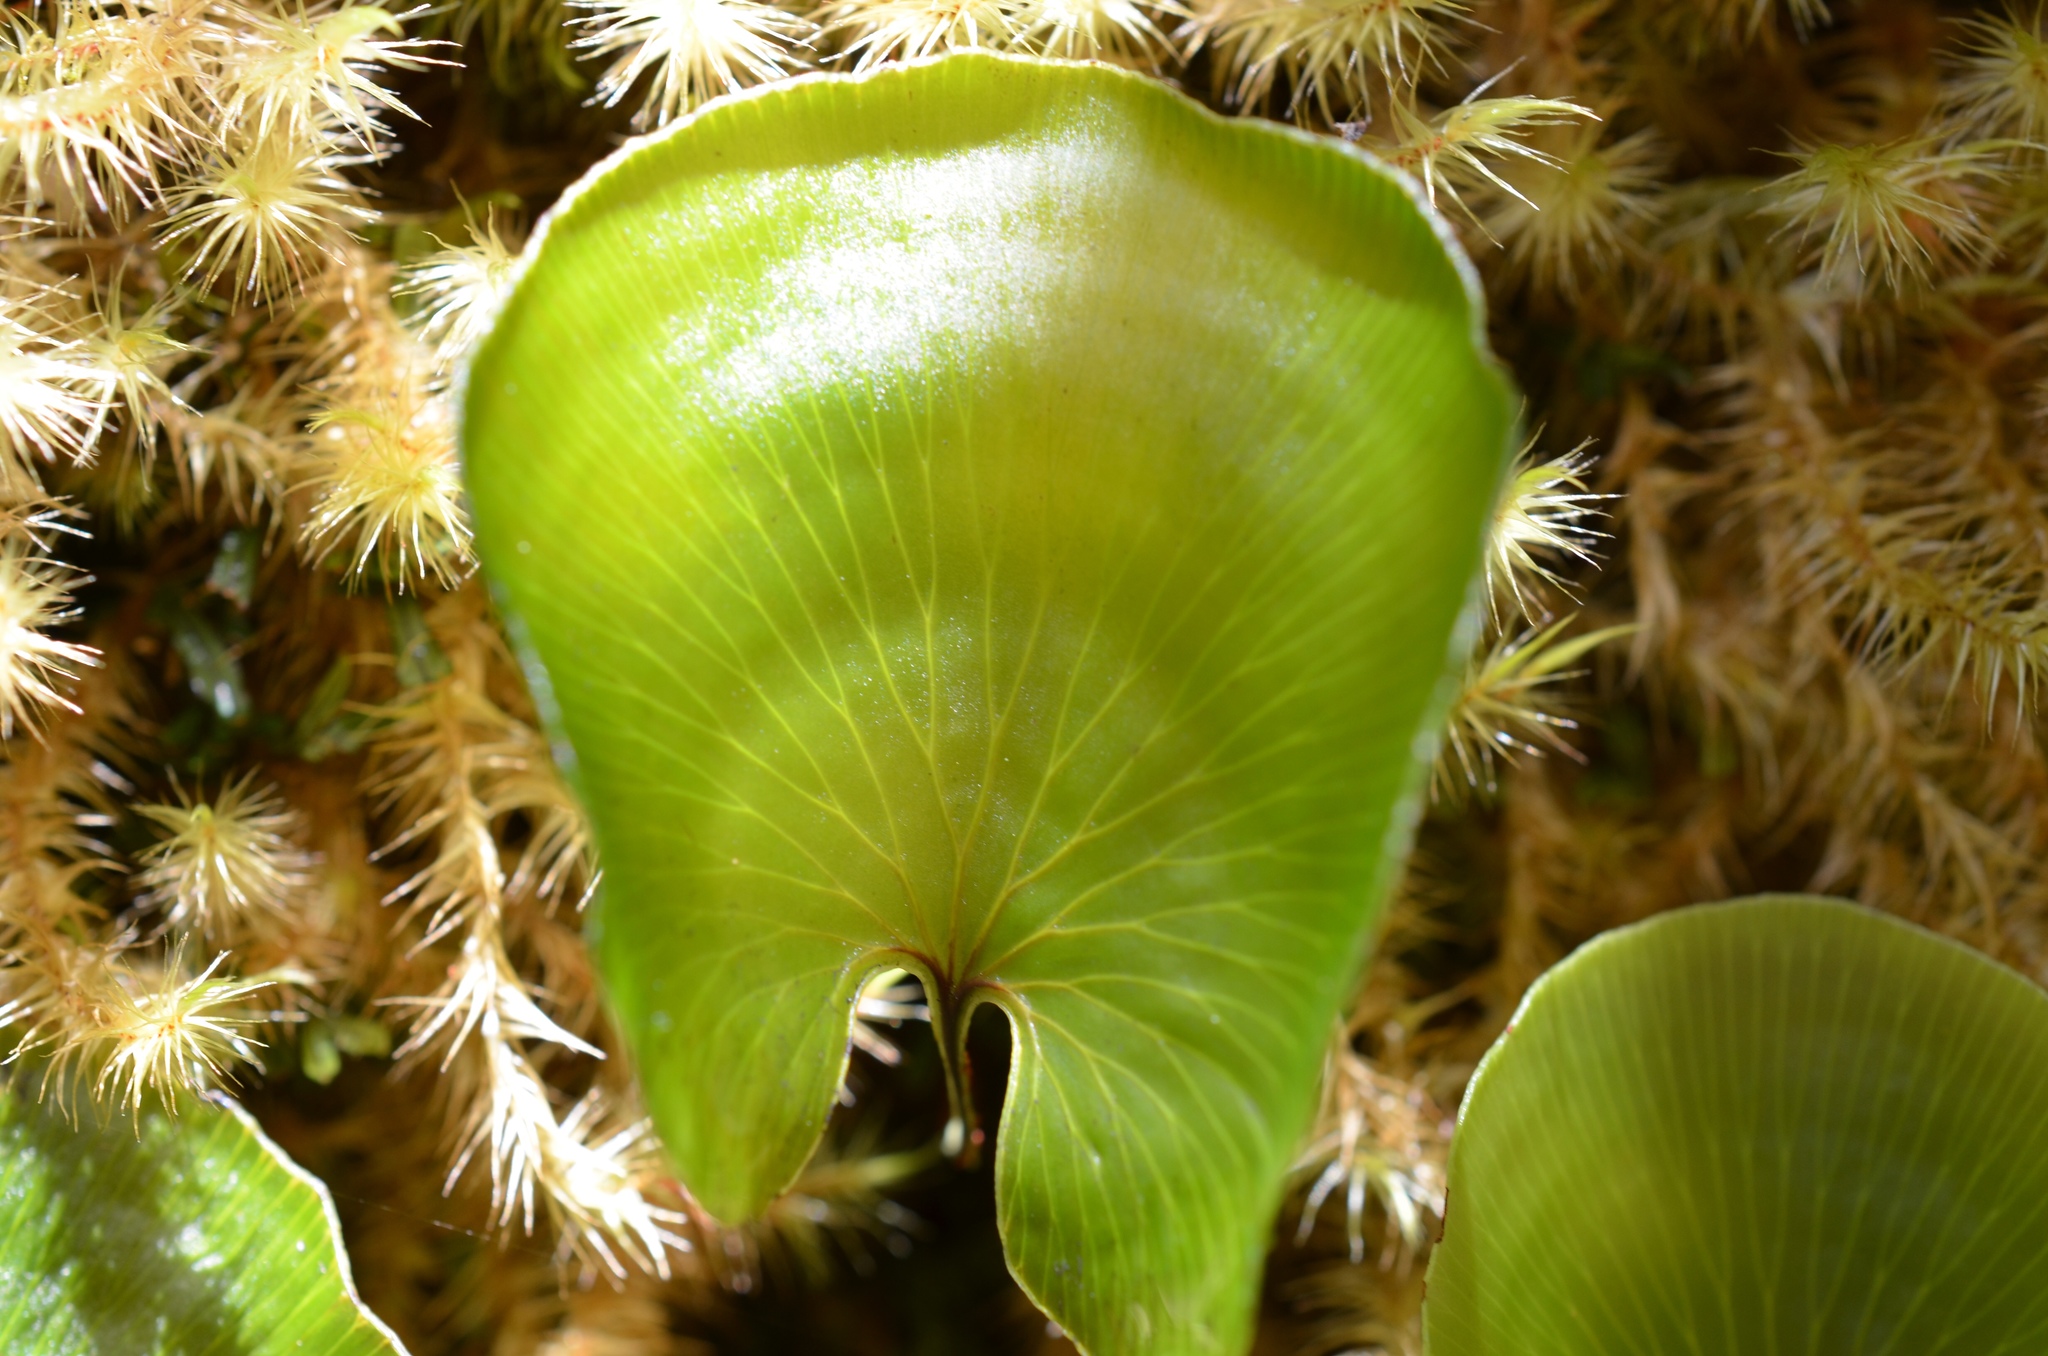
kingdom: Plantae
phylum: Tracheophyta
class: Polypodiopsida
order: Hymenophyllales
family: Hymenophyllaceae
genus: Hymenophyllum
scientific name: Hymenophyllum nephrophyllum
